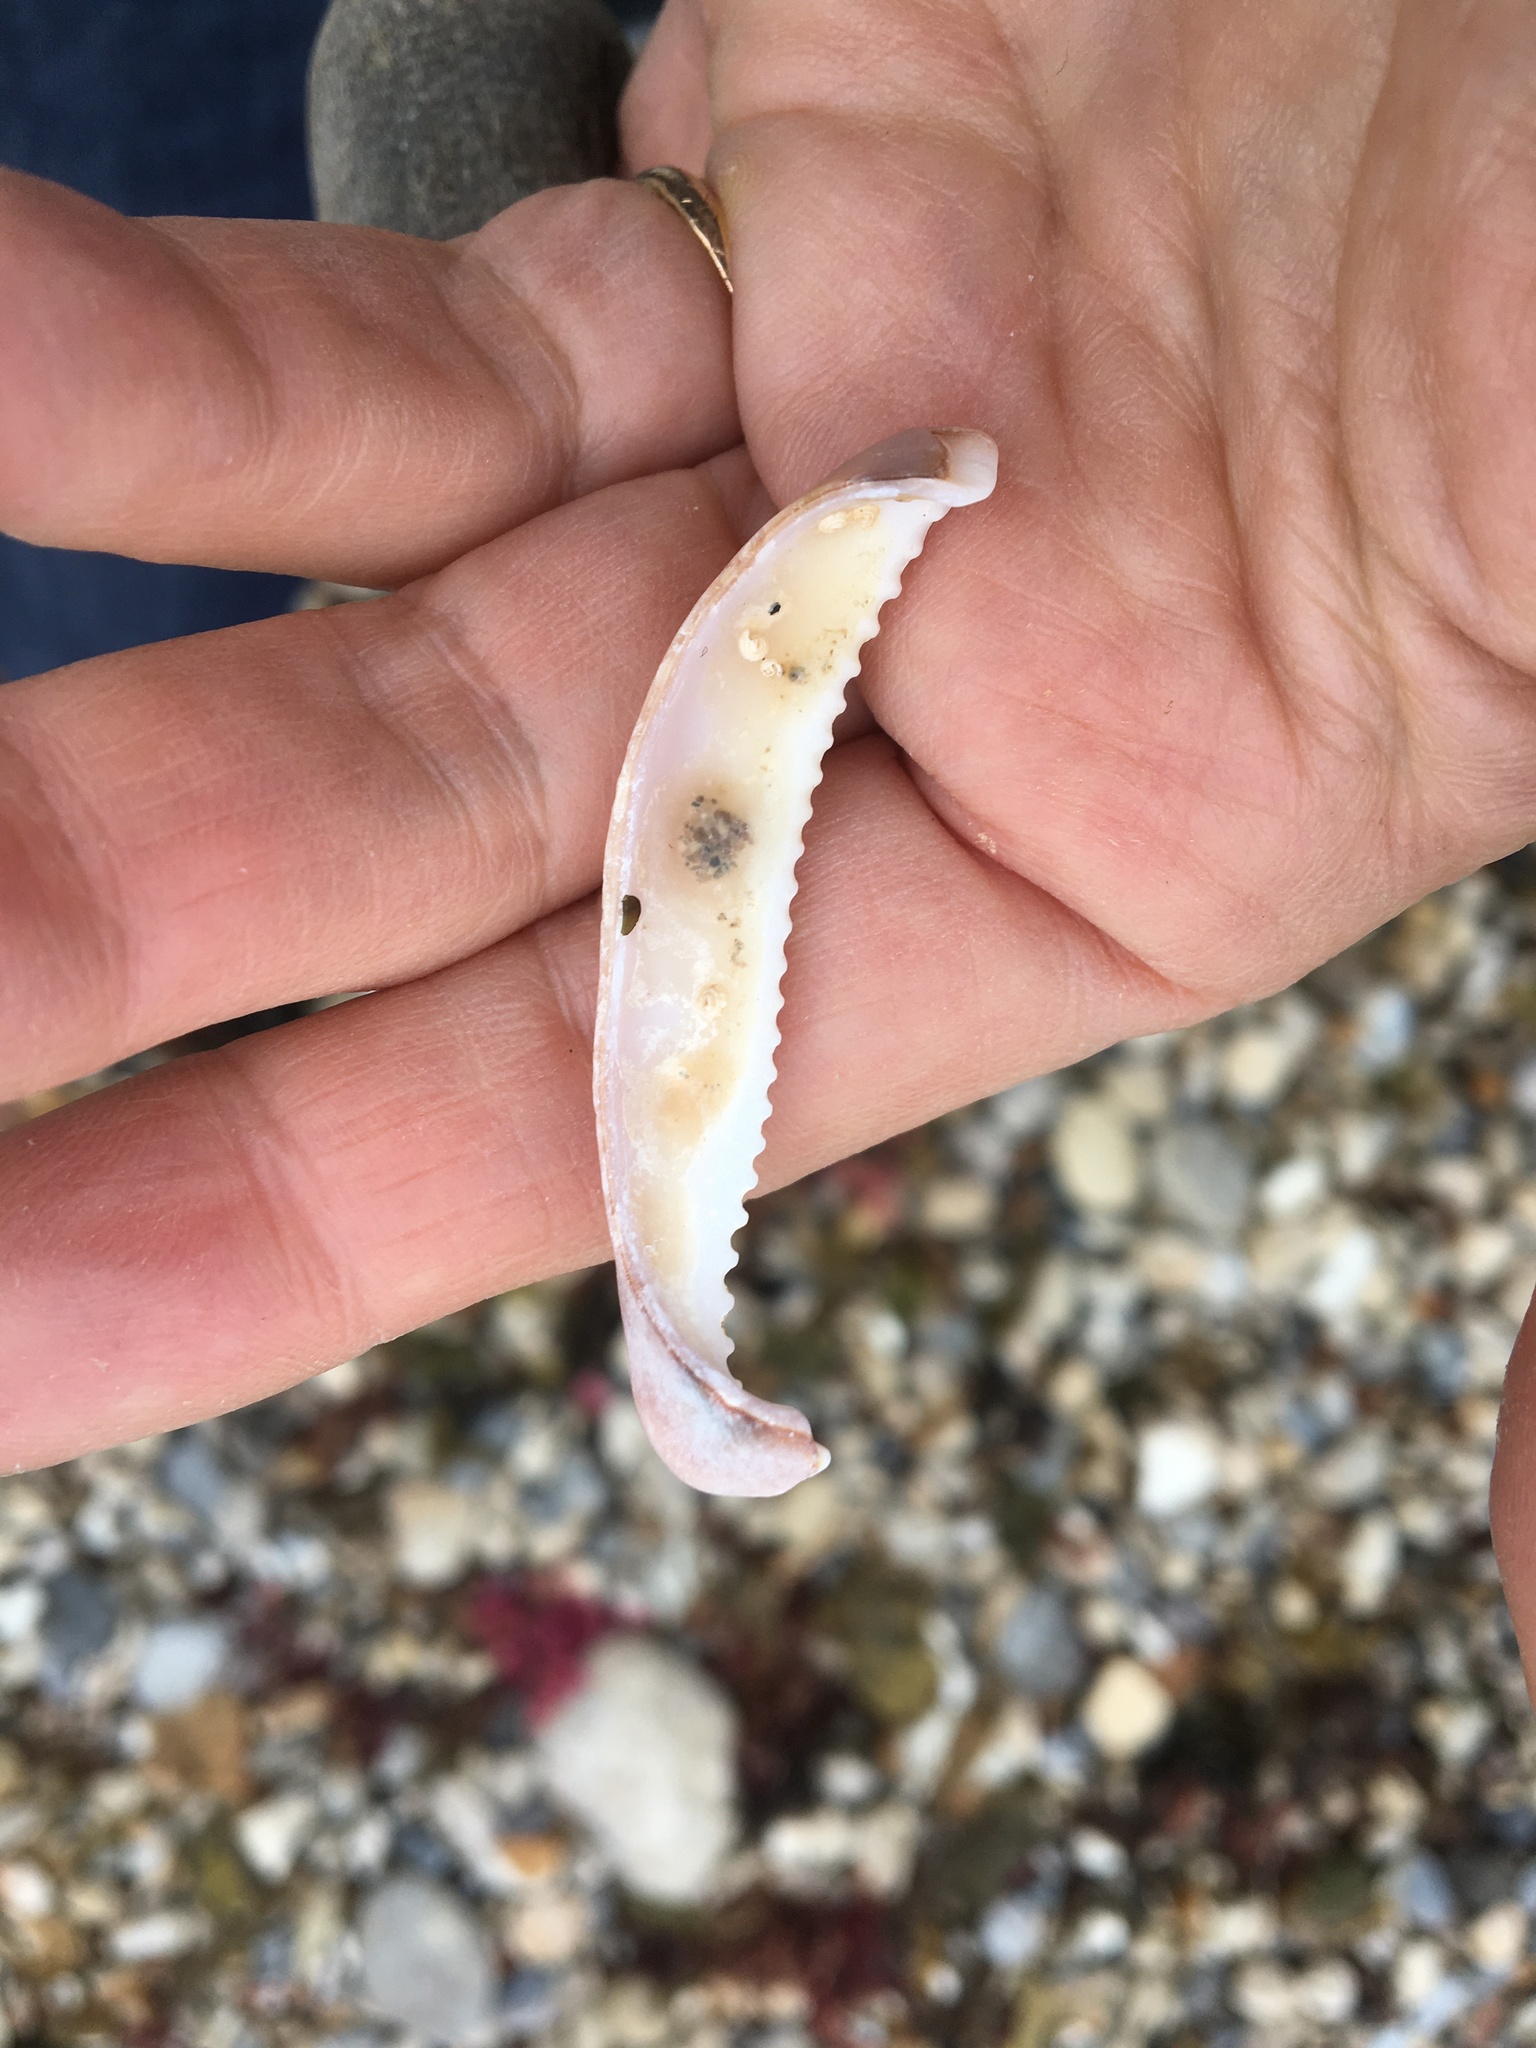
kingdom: Animalia
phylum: Mollusca
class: Gastropoda
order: Littorinimorpha
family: Cypraeidae
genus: Neobernaya
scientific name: Neobernaya spadicea
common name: Chestnut cowrie
